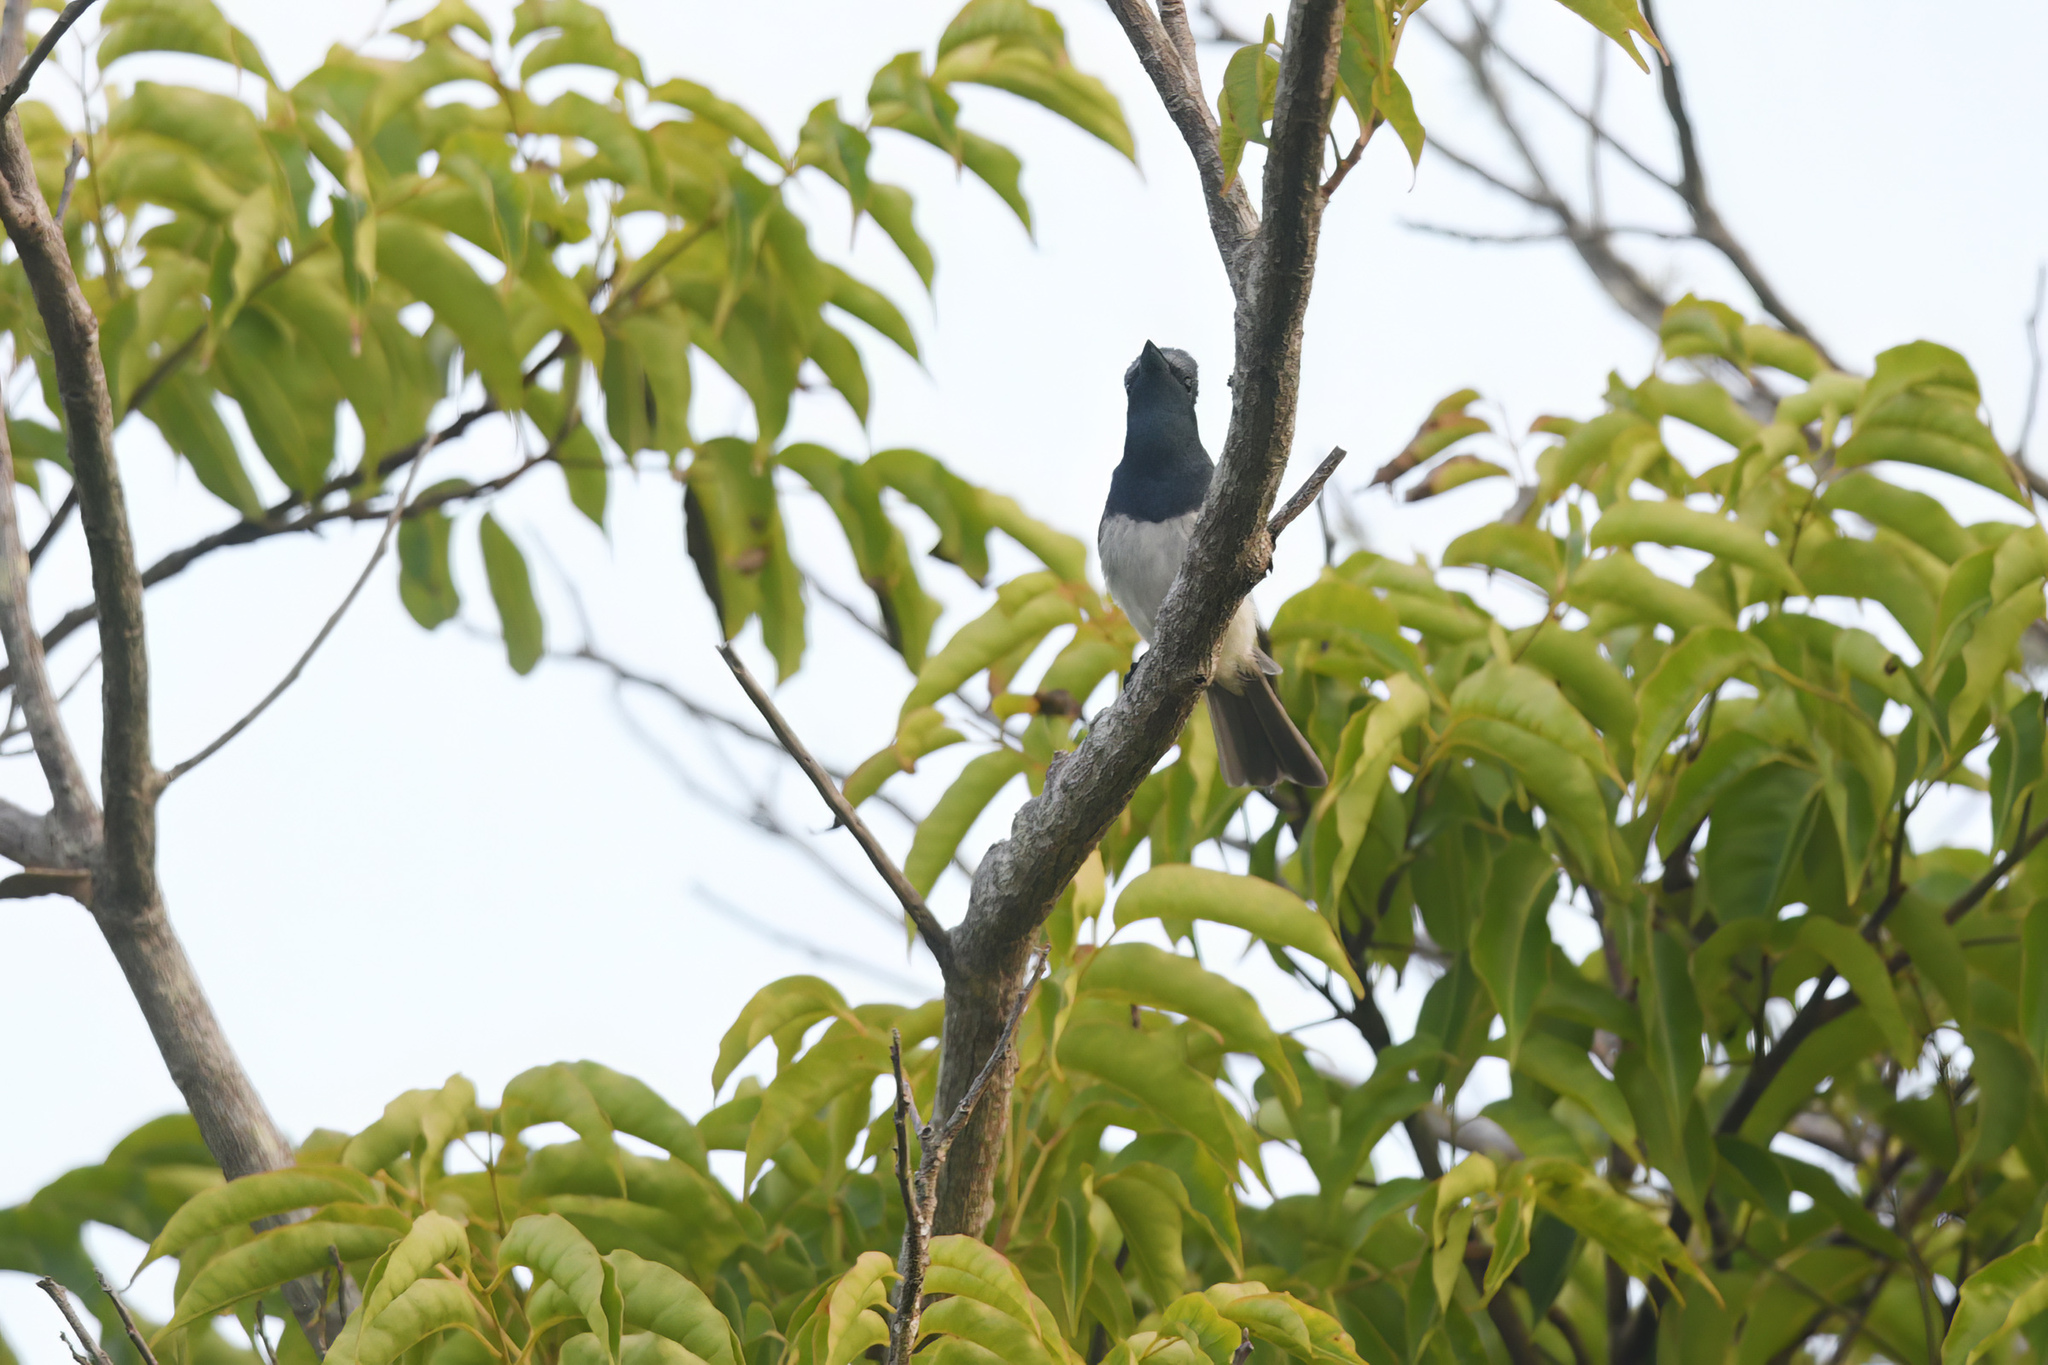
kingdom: Animalia
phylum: Chordata
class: Aves
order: Passeriformes
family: Monarchidae
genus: Myiagra
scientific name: Myiagra rubecula
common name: Leaden flycatcher
